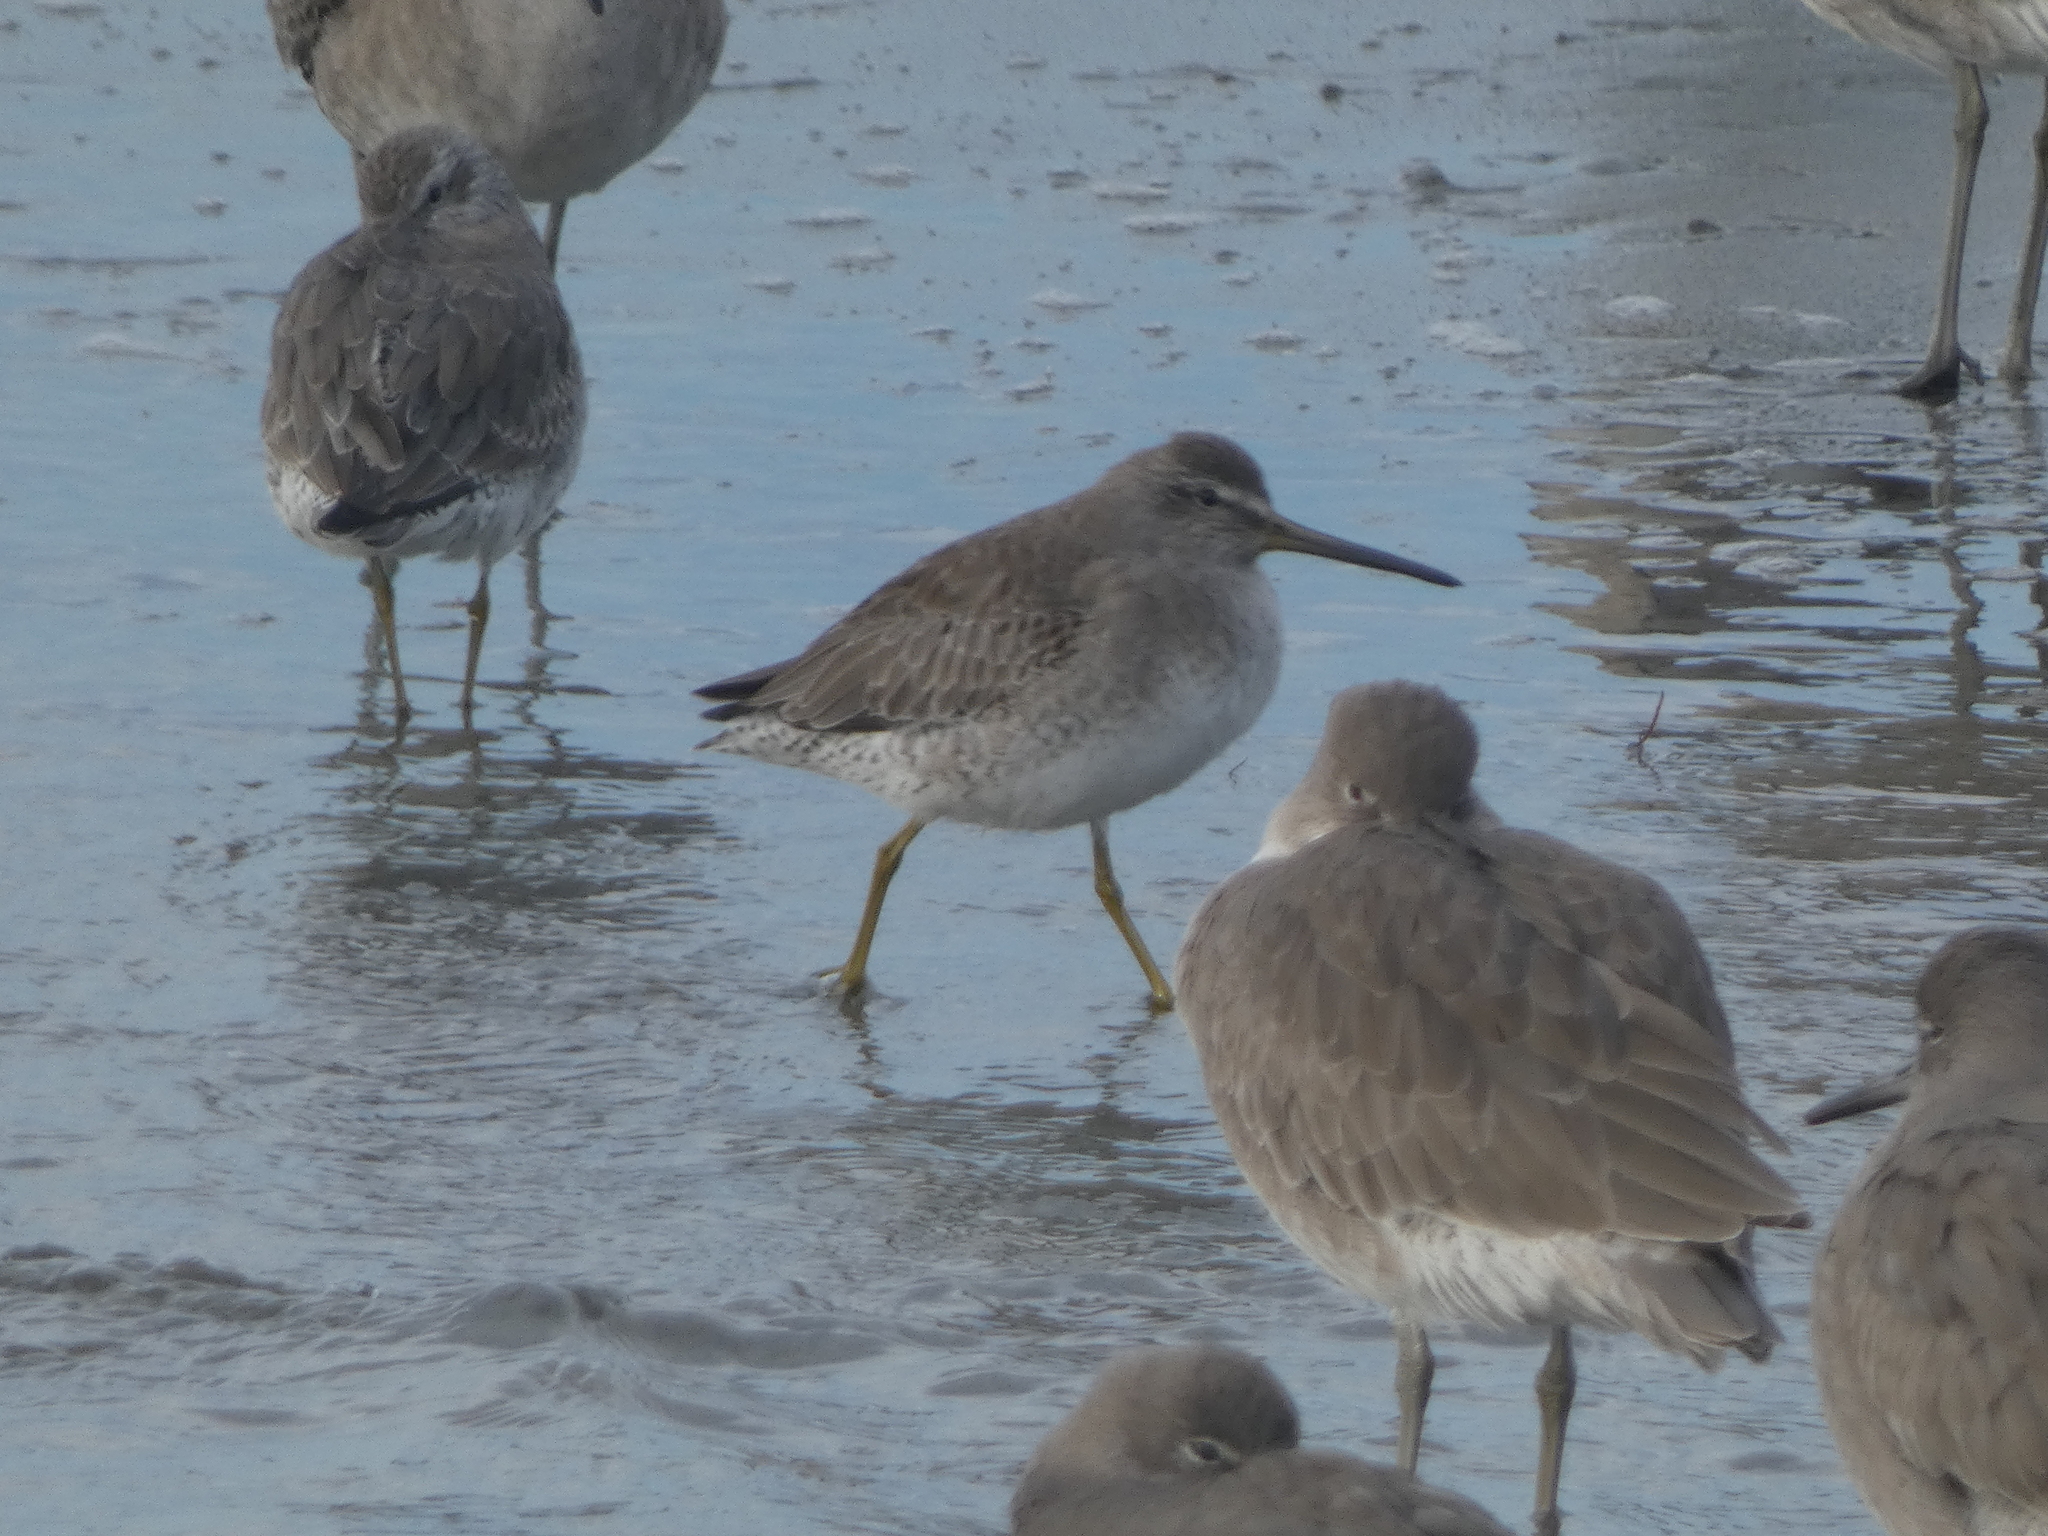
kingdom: Animalia
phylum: Chordata
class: Aves
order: Charadriiformes
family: Scolopacidae
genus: Limnodromus
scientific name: Limnodromus griseus
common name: Short-billed dowitcher
